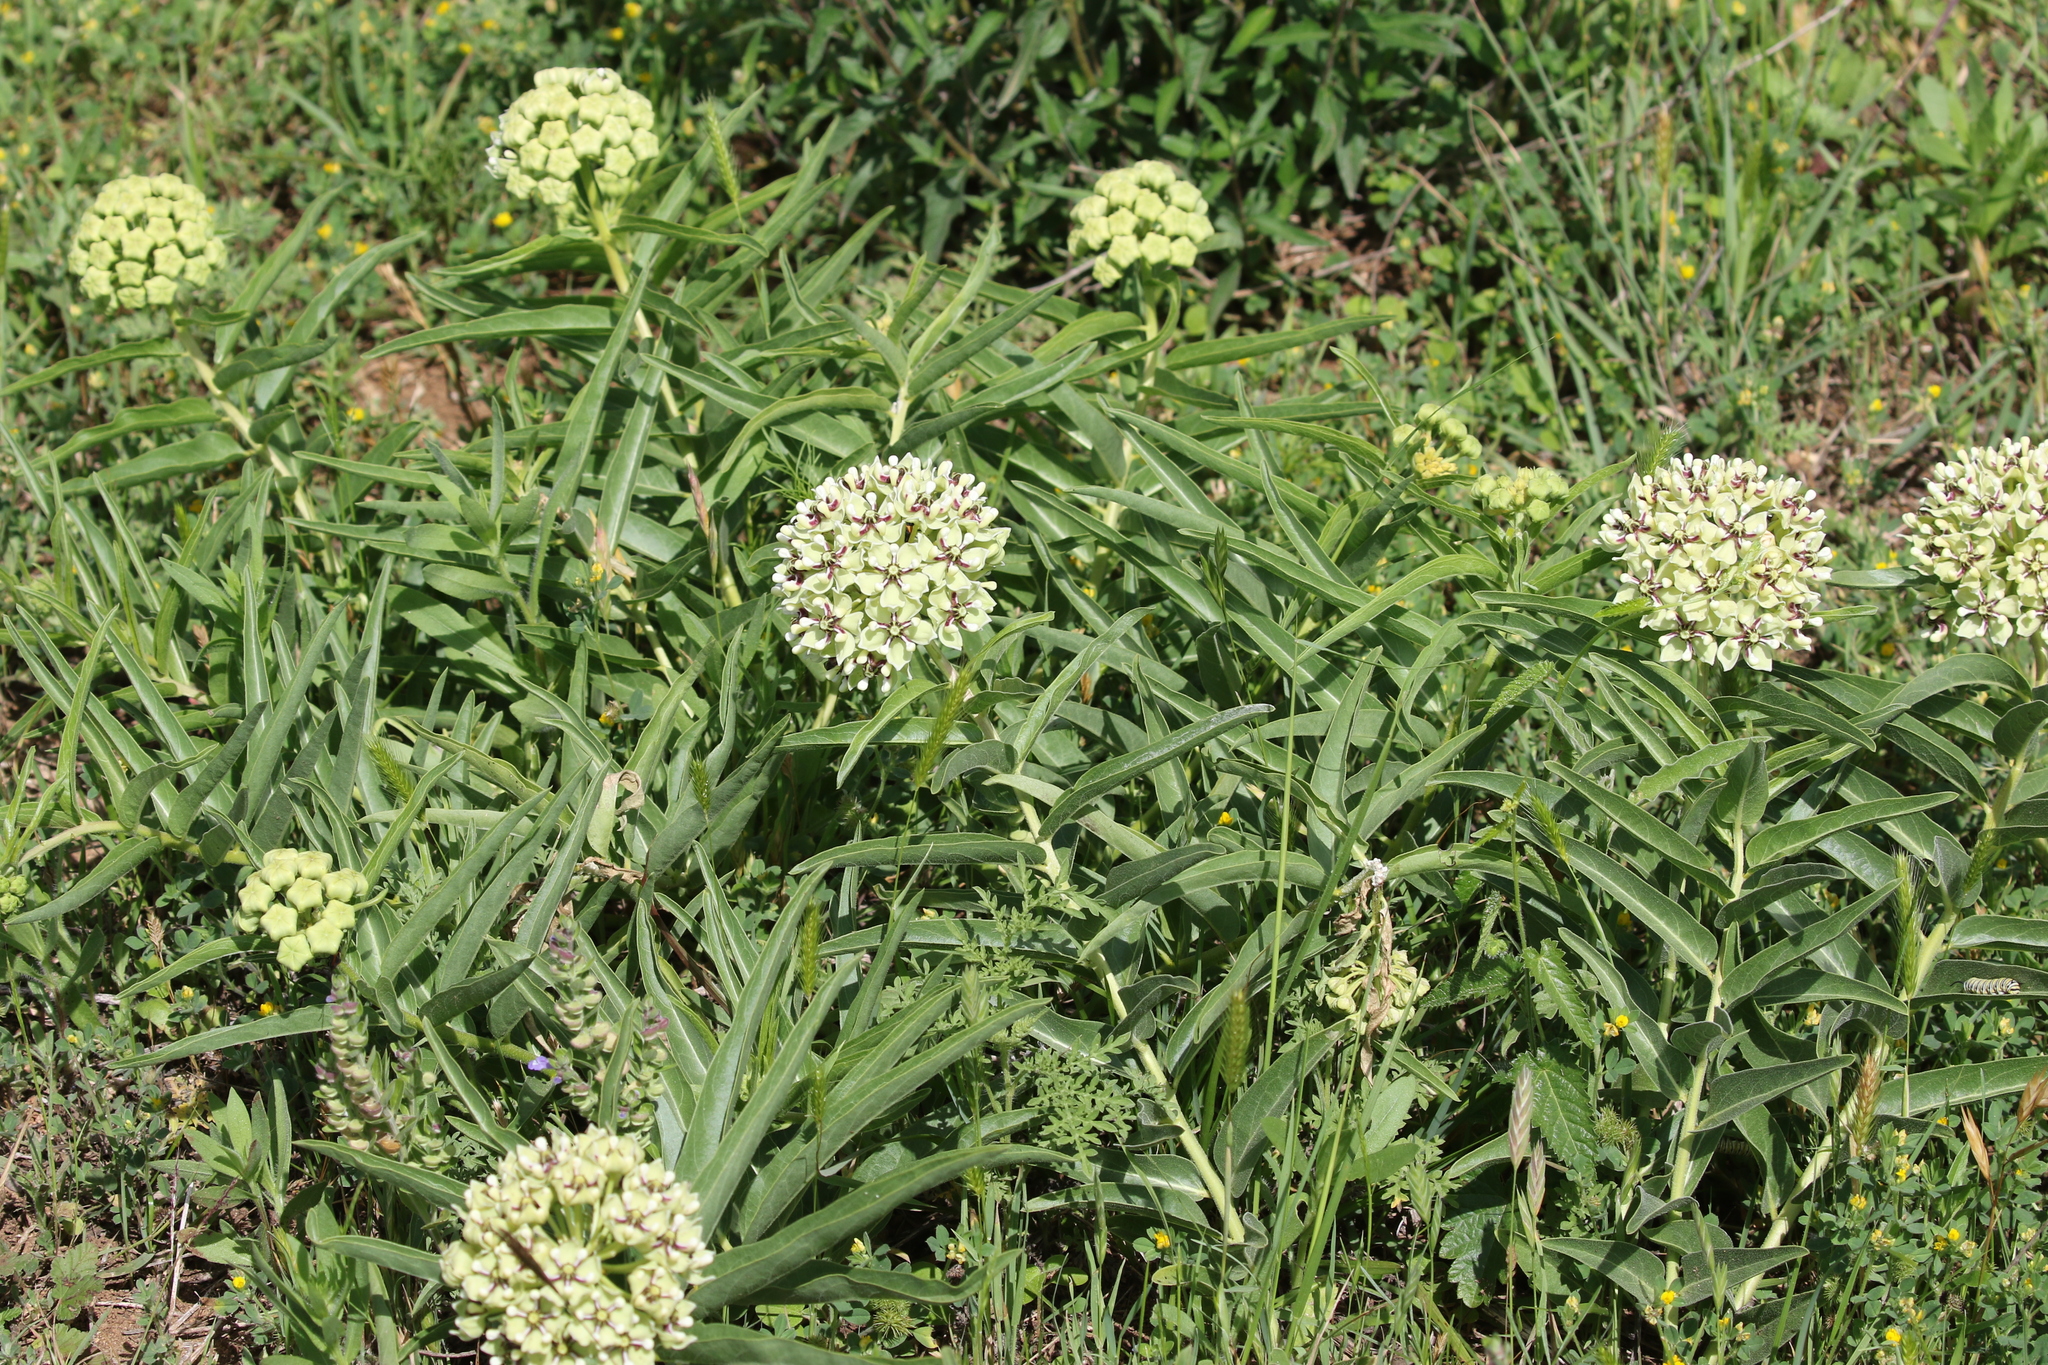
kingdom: Plantae
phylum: Tracheophyta
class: Magnoliopsida
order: Gentianales
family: Apocynaceae
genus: Asclepias
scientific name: Asclepias asperula
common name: Antelope horns
